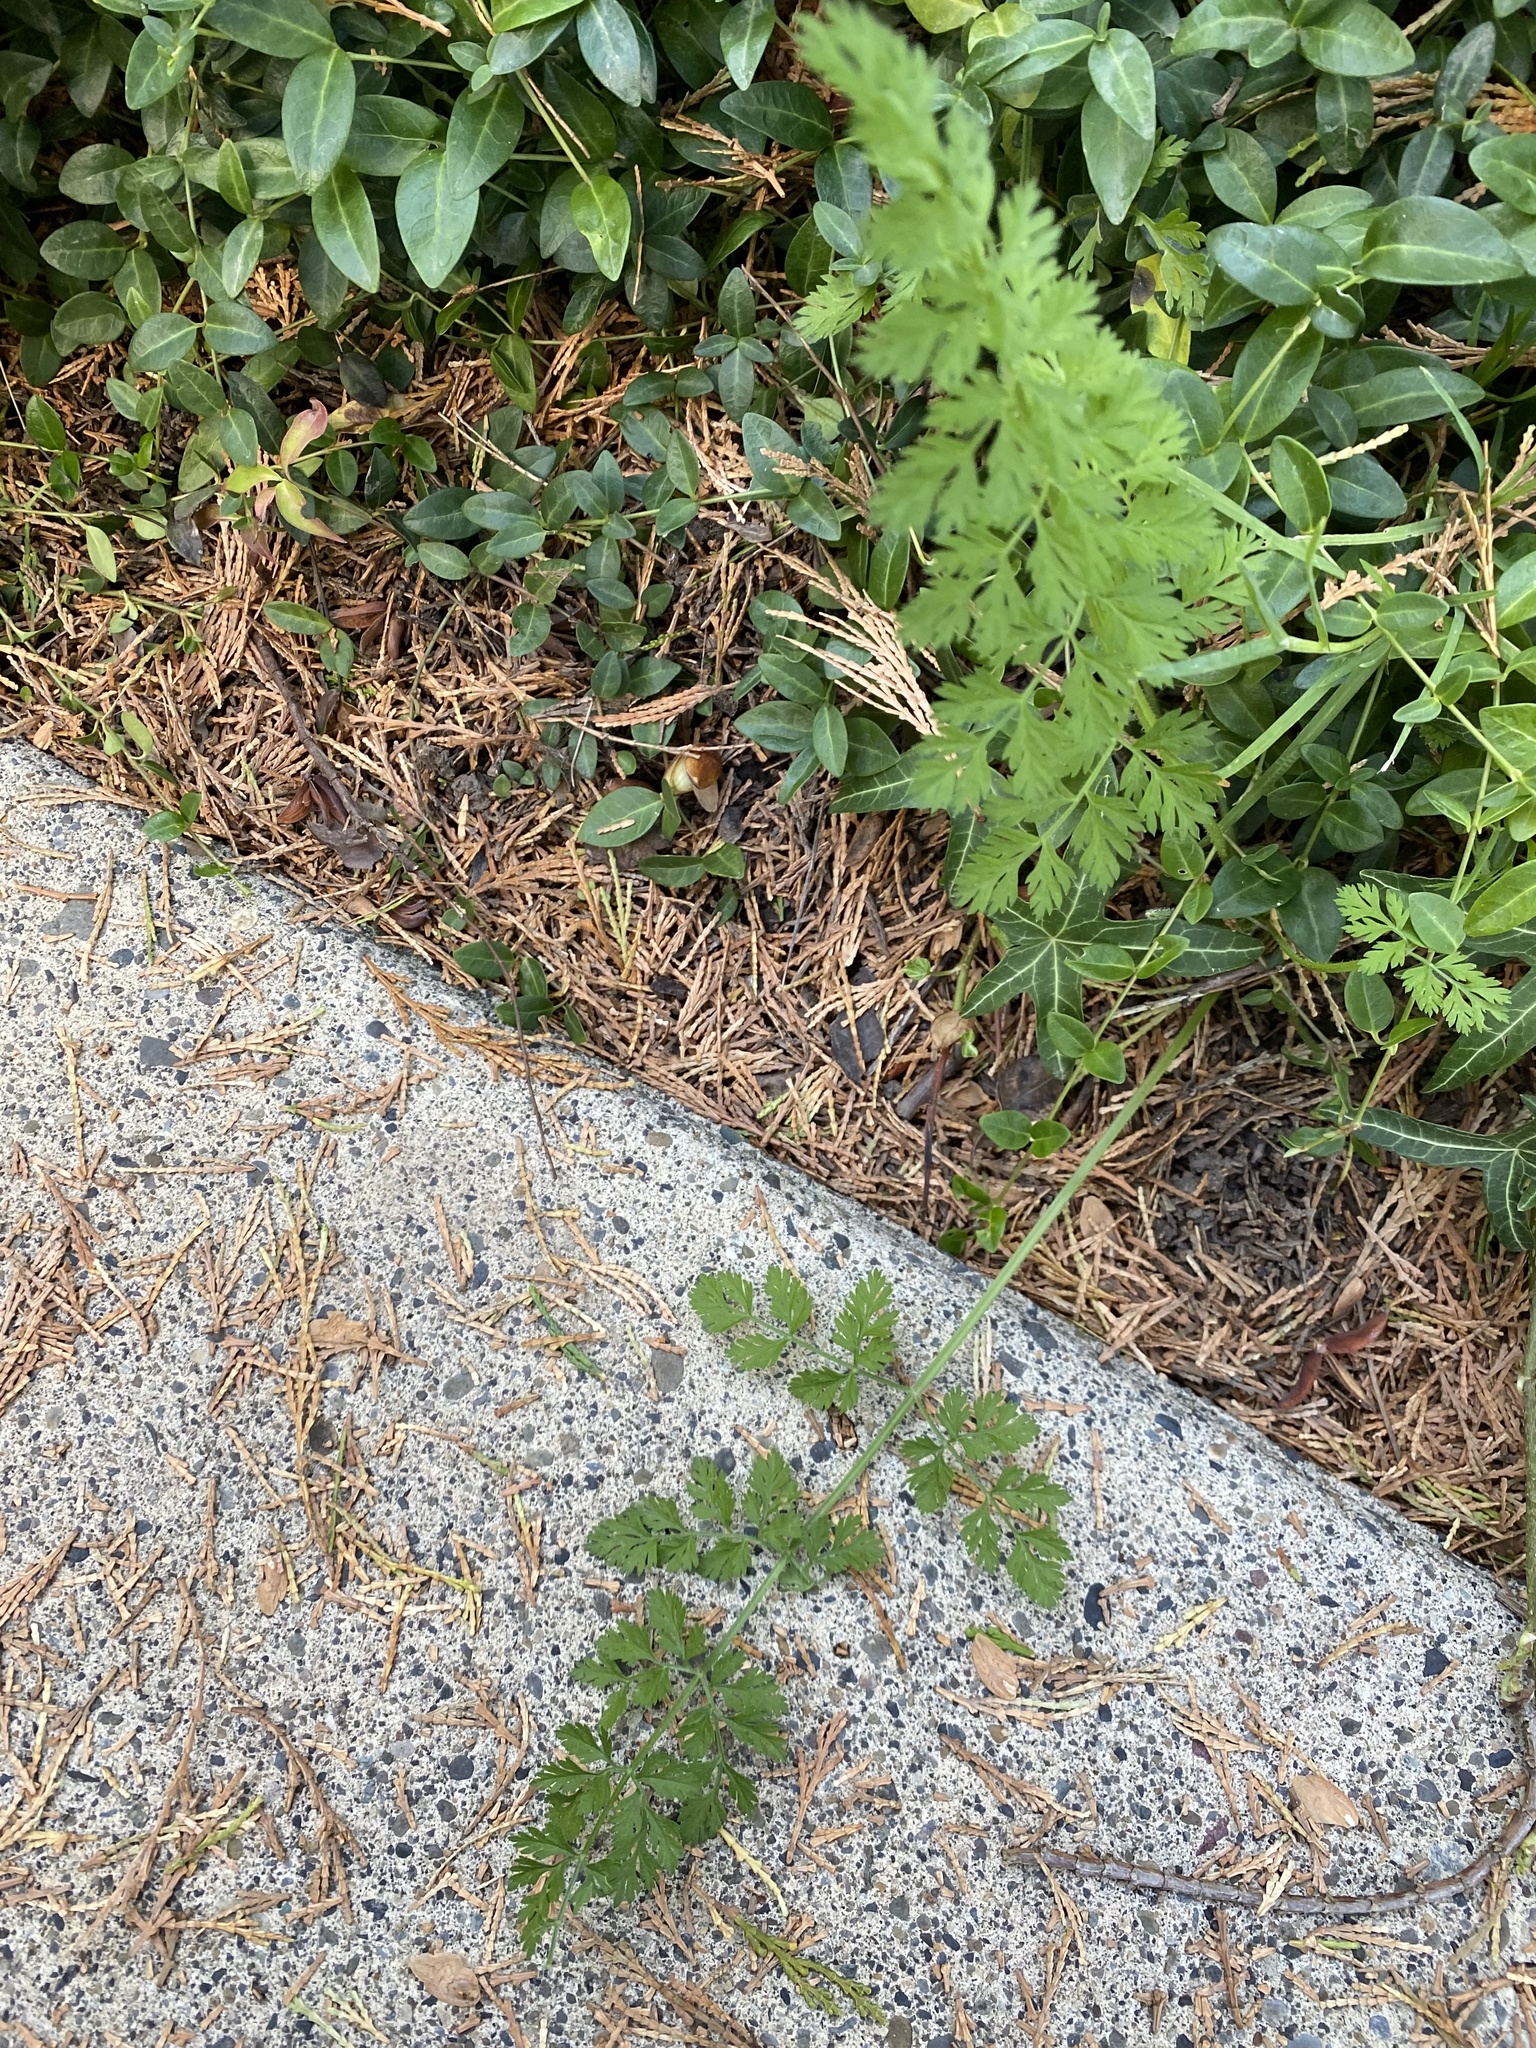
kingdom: Plantae
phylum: Tracheophyta
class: Magnoliopsida
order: Apiales
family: Apiaceae
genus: Daucus
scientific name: Daucus carota
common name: Wild carrot
